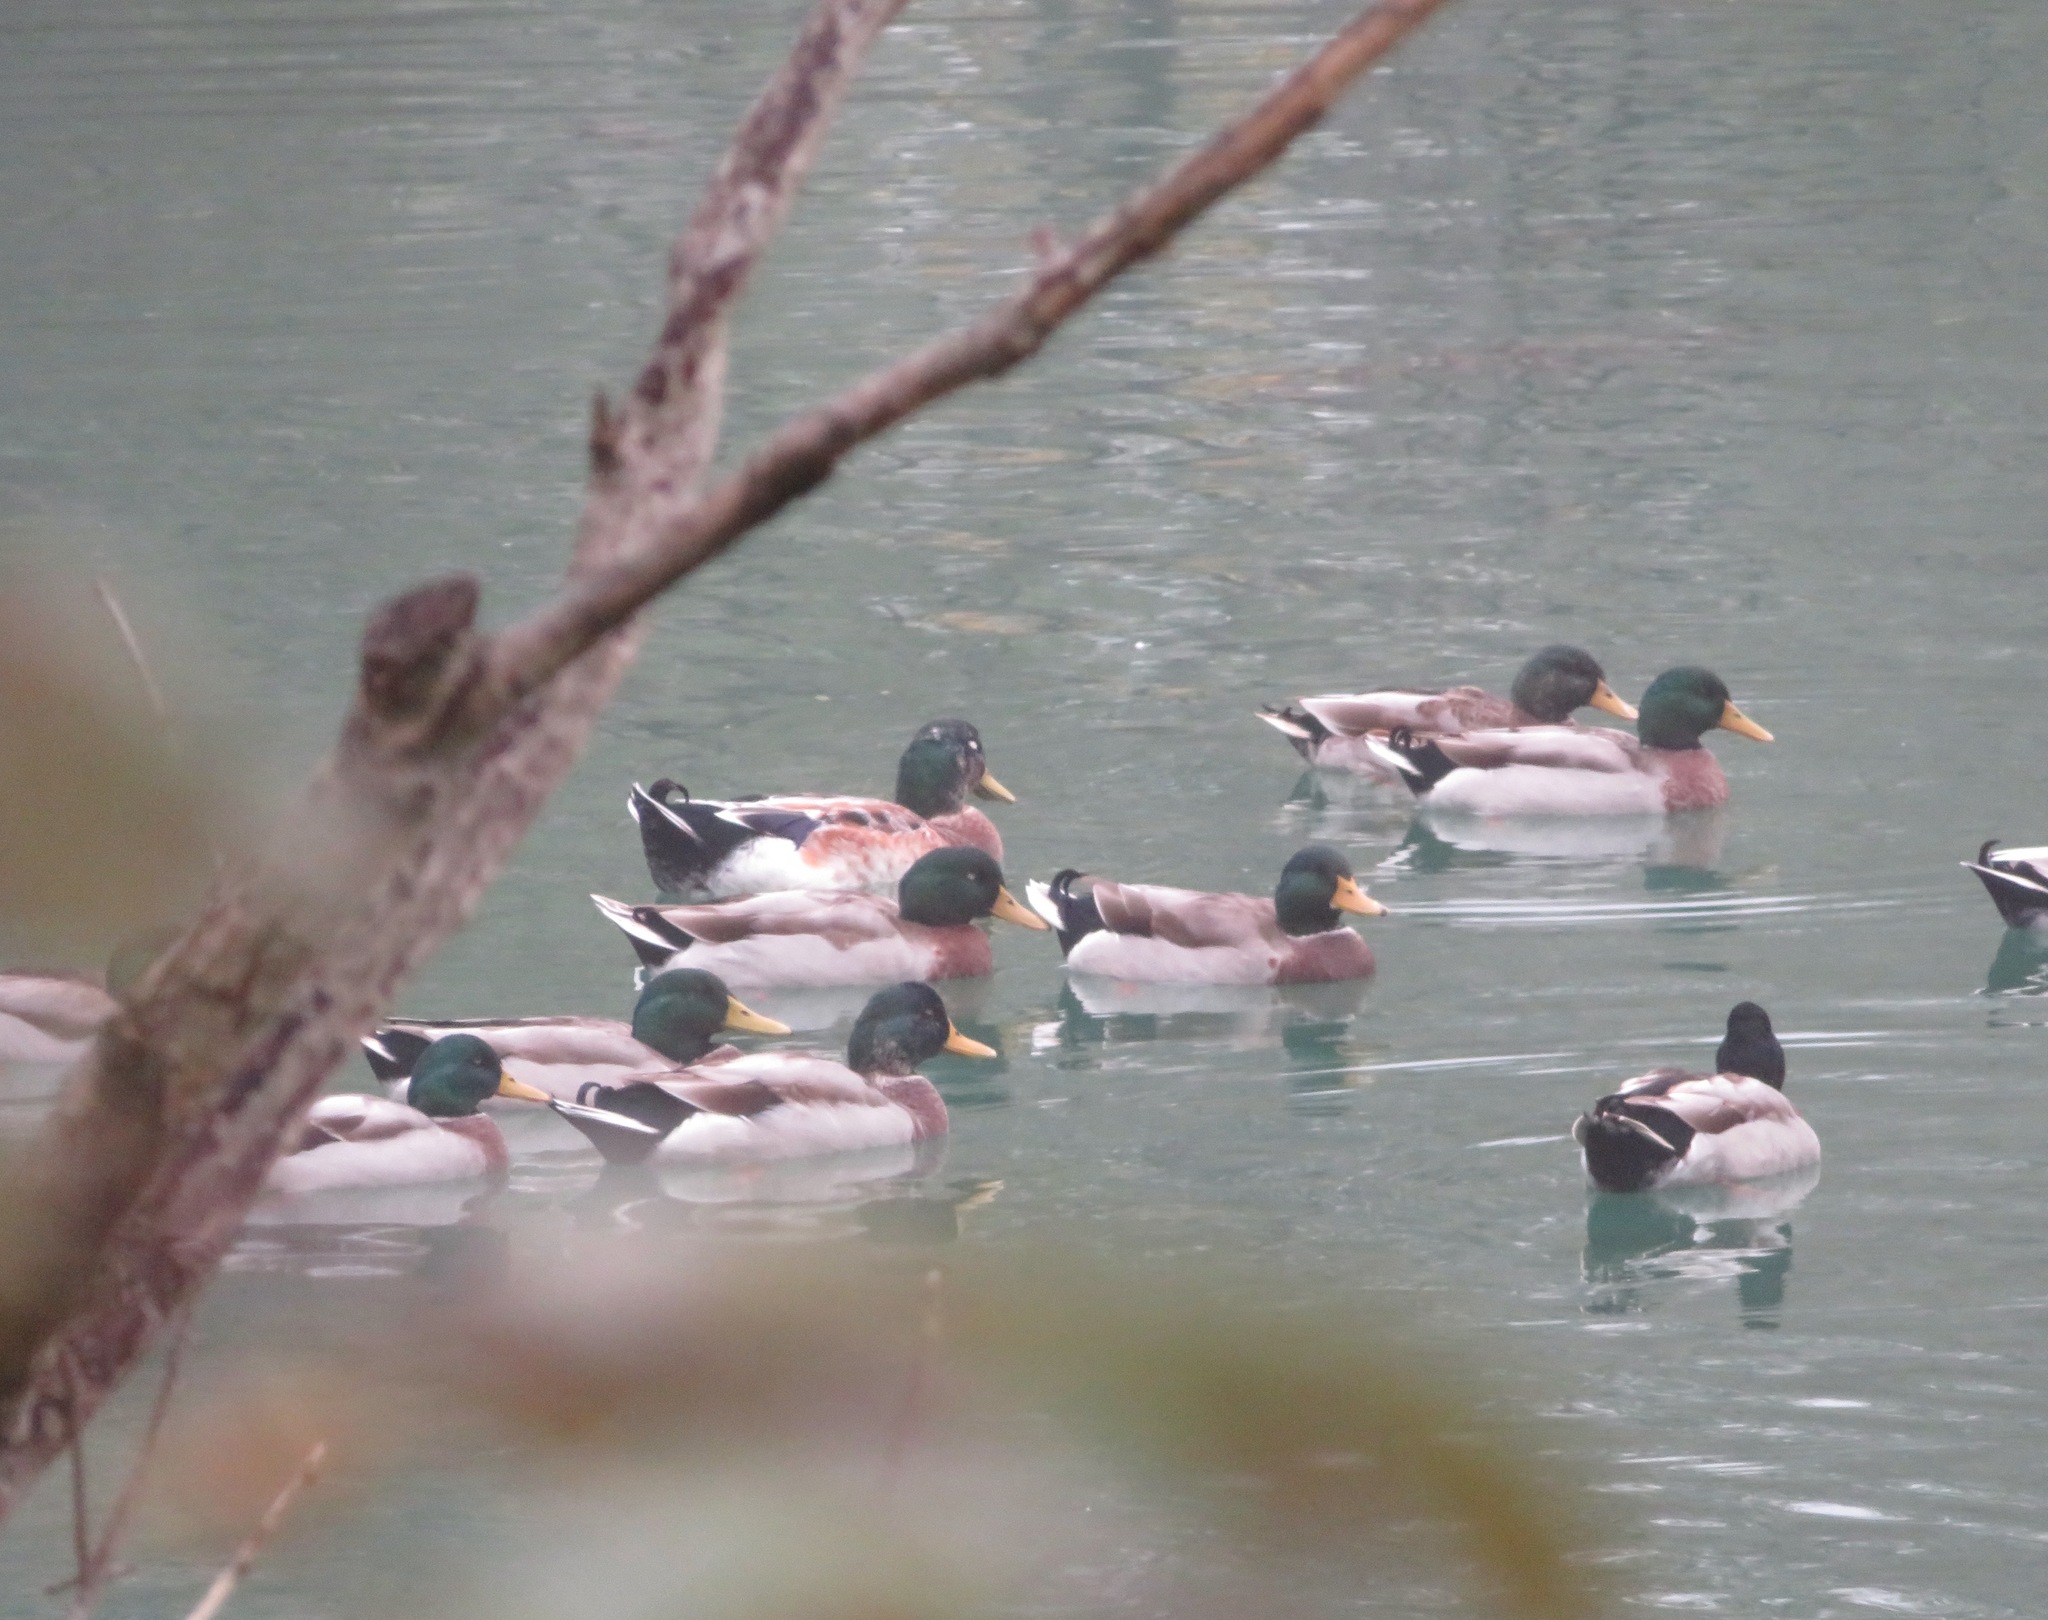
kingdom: Animalia
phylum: Chordata
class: Aves
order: Anseriformes
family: Anatidae
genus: Anas
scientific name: Anas platyrhynchos
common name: Mallard
